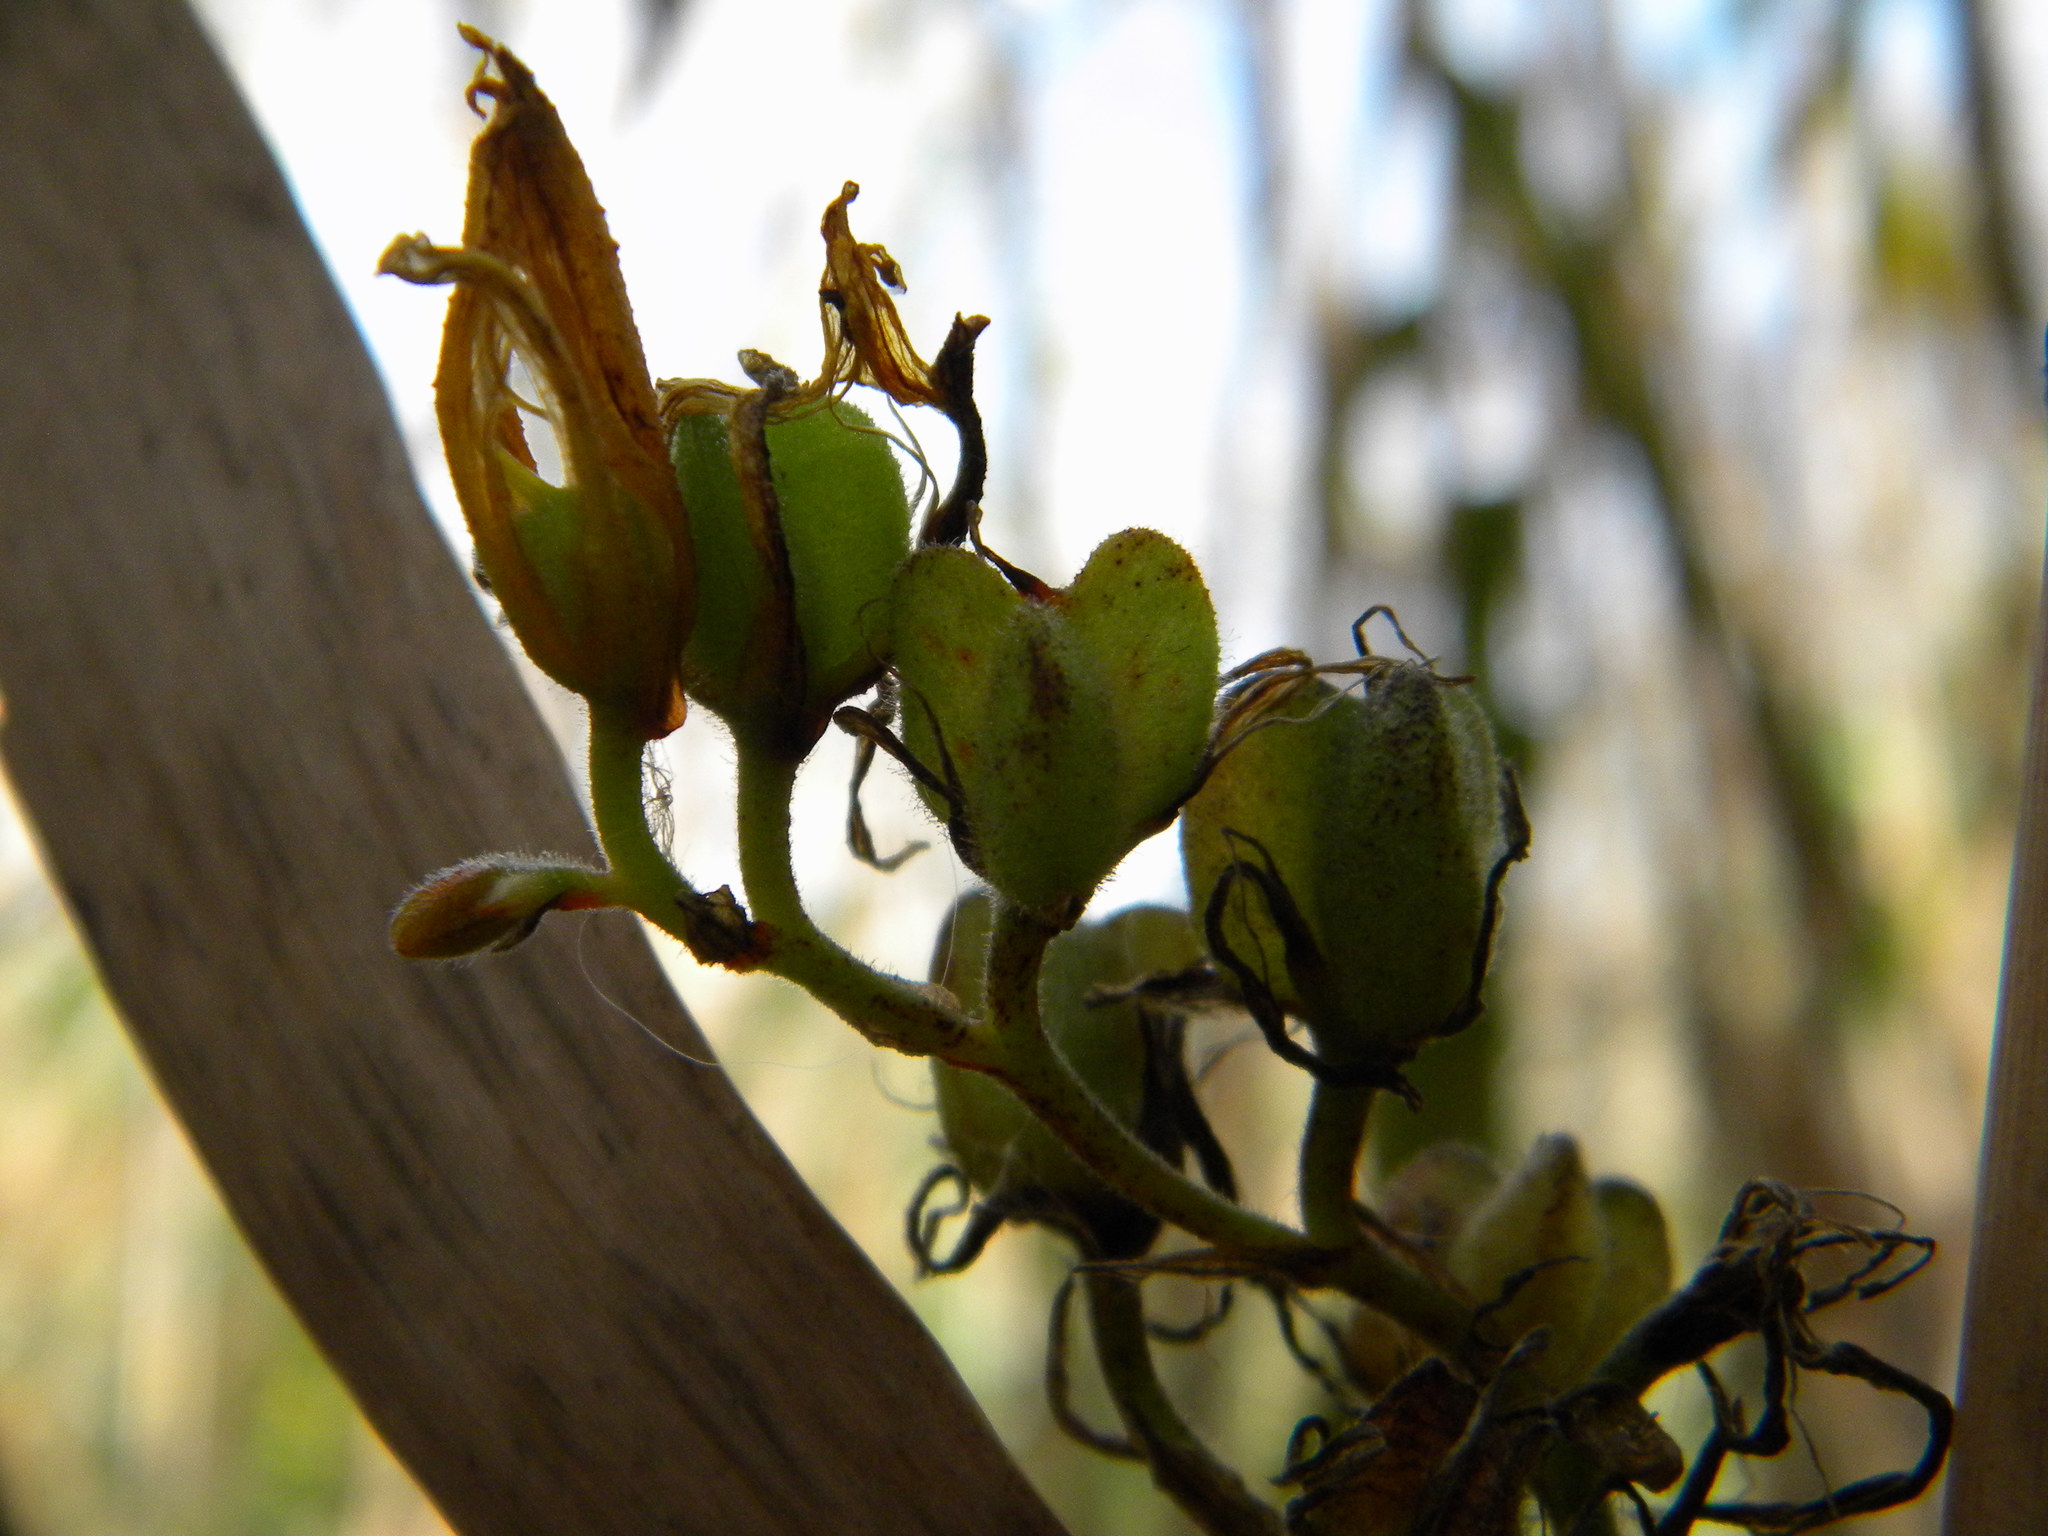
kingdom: Plantae
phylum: Tracheophyta
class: Liliopsida
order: Commelinales
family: Haemodoraceae
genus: Wachendorfia
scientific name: Wachendorfia thyrsiflora
